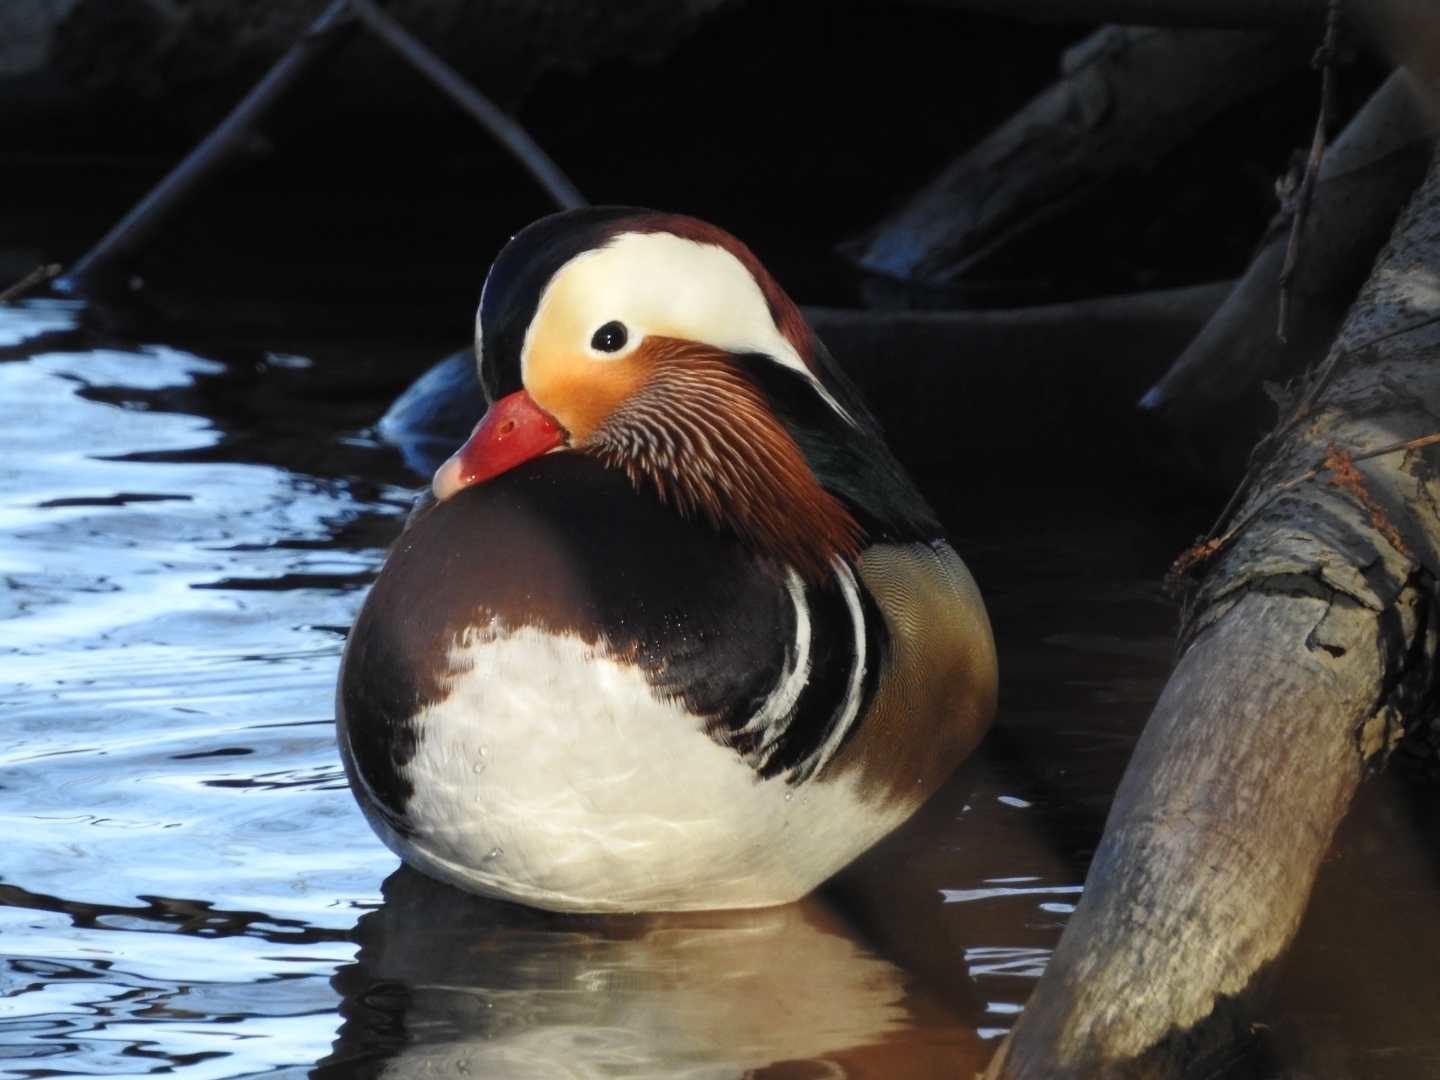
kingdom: Animalia
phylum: Chordata
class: Aves
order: Anseriformes
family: Anatidae
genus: Aix
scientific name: Aix galericulata
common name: Mandarin duck
